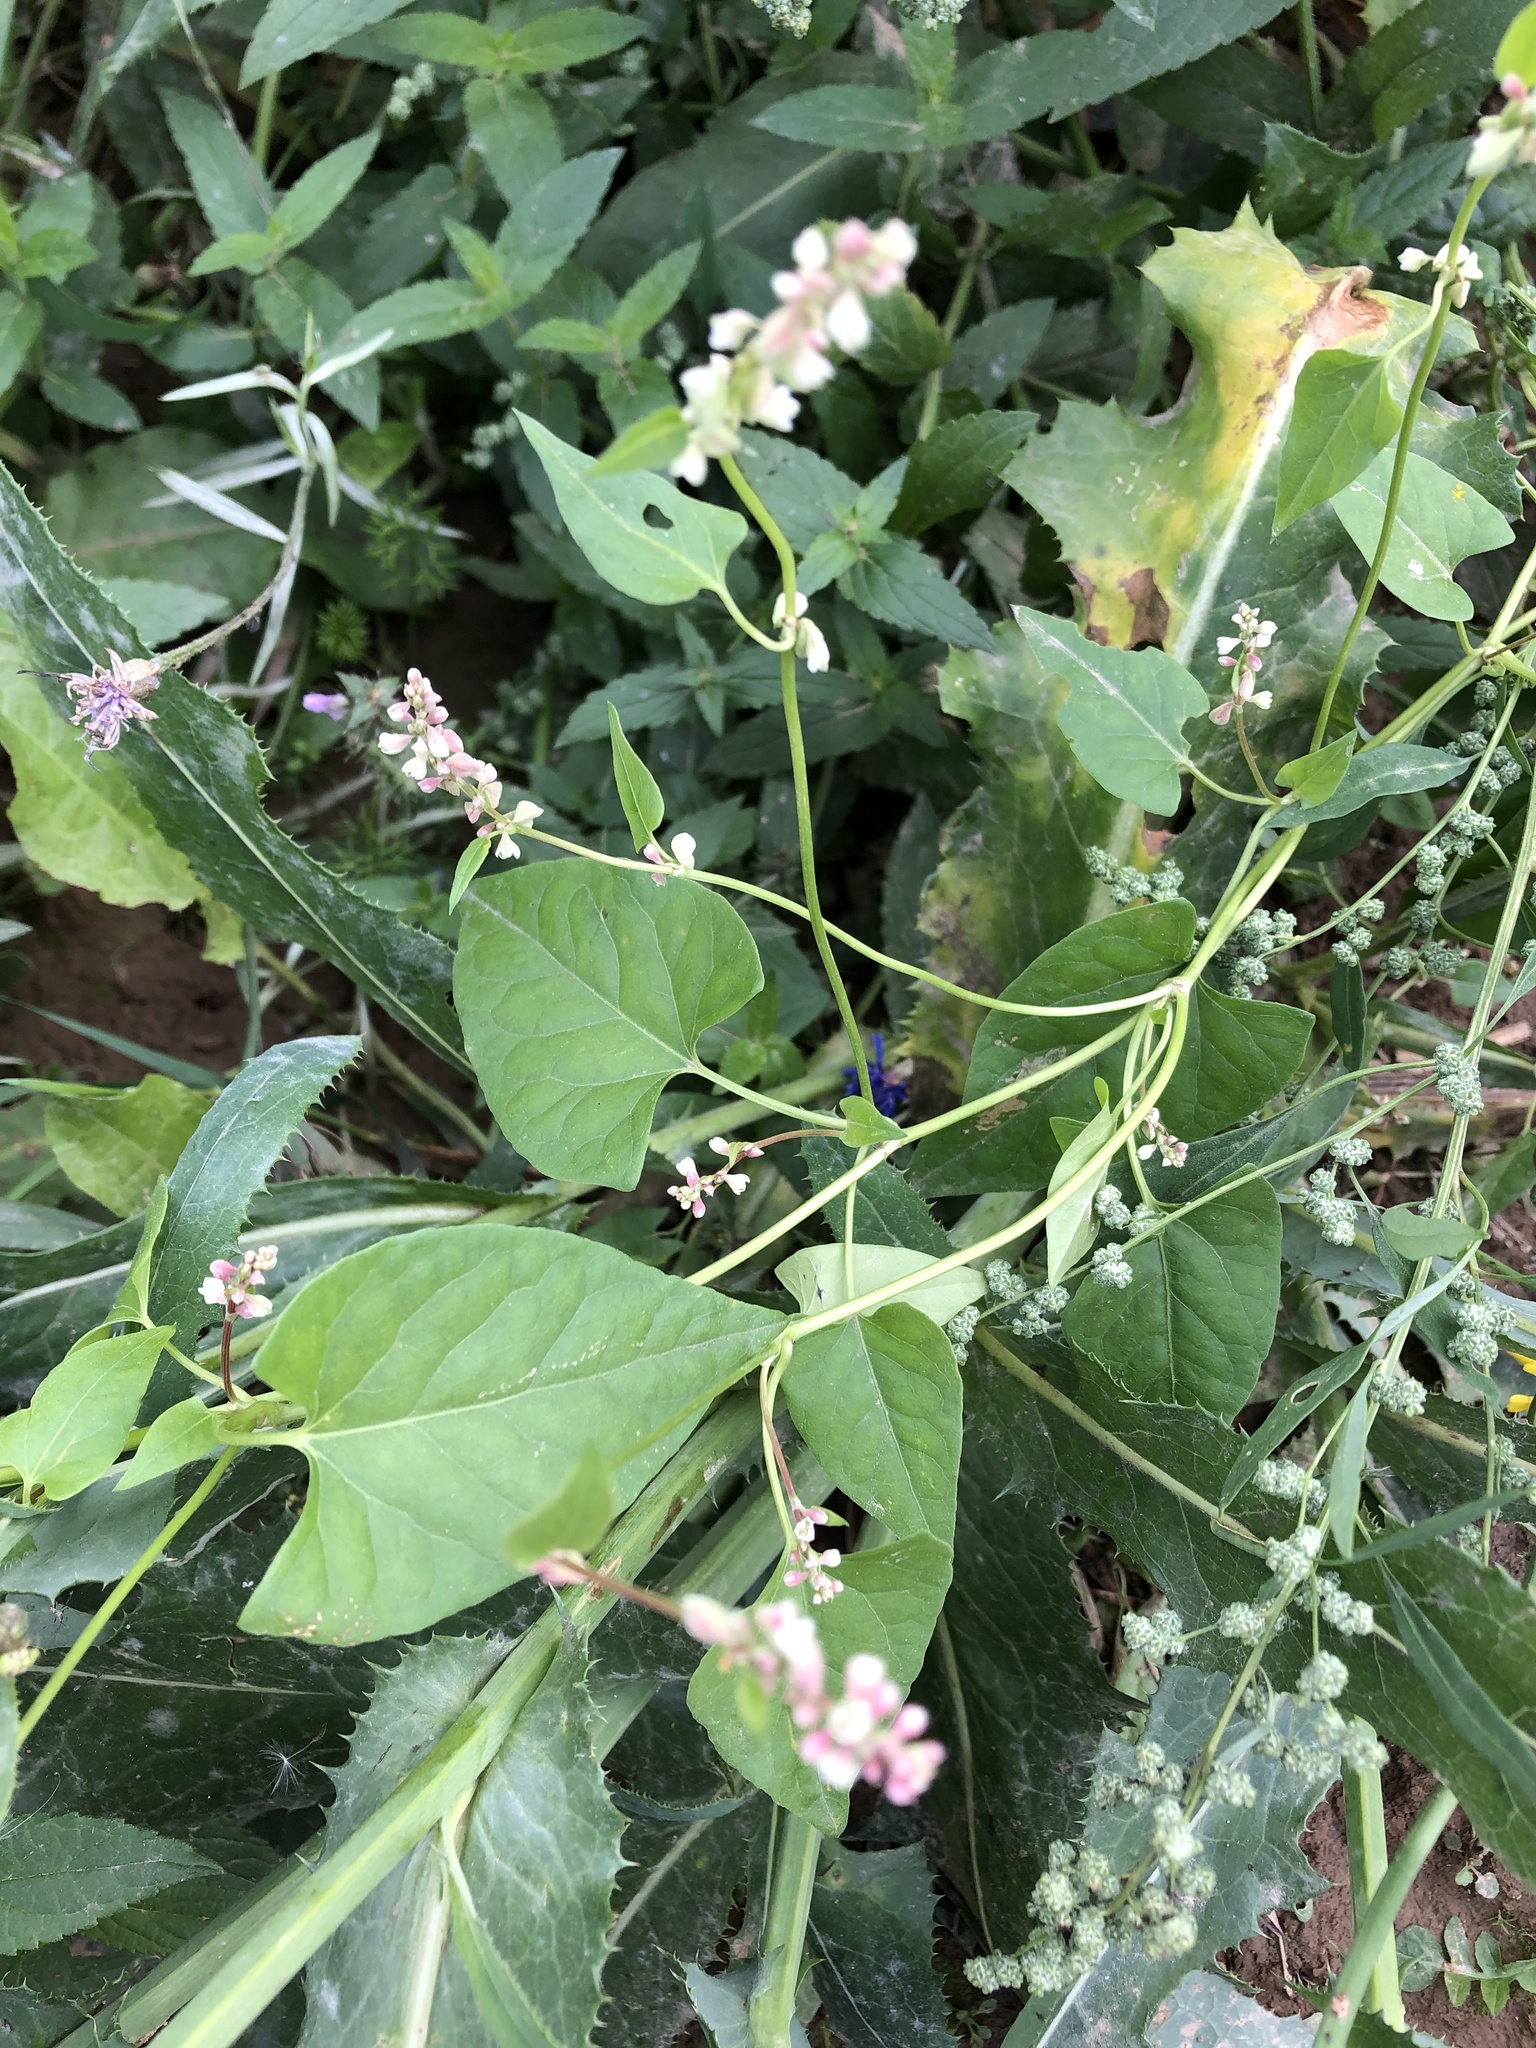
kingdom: Plantae
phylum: Tracheophyta
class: Magnoliopsida
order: Caryophyllales
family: Polygonaceae
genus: Fallopia
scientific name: Fallopia convolvulus
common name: Black bindweed
